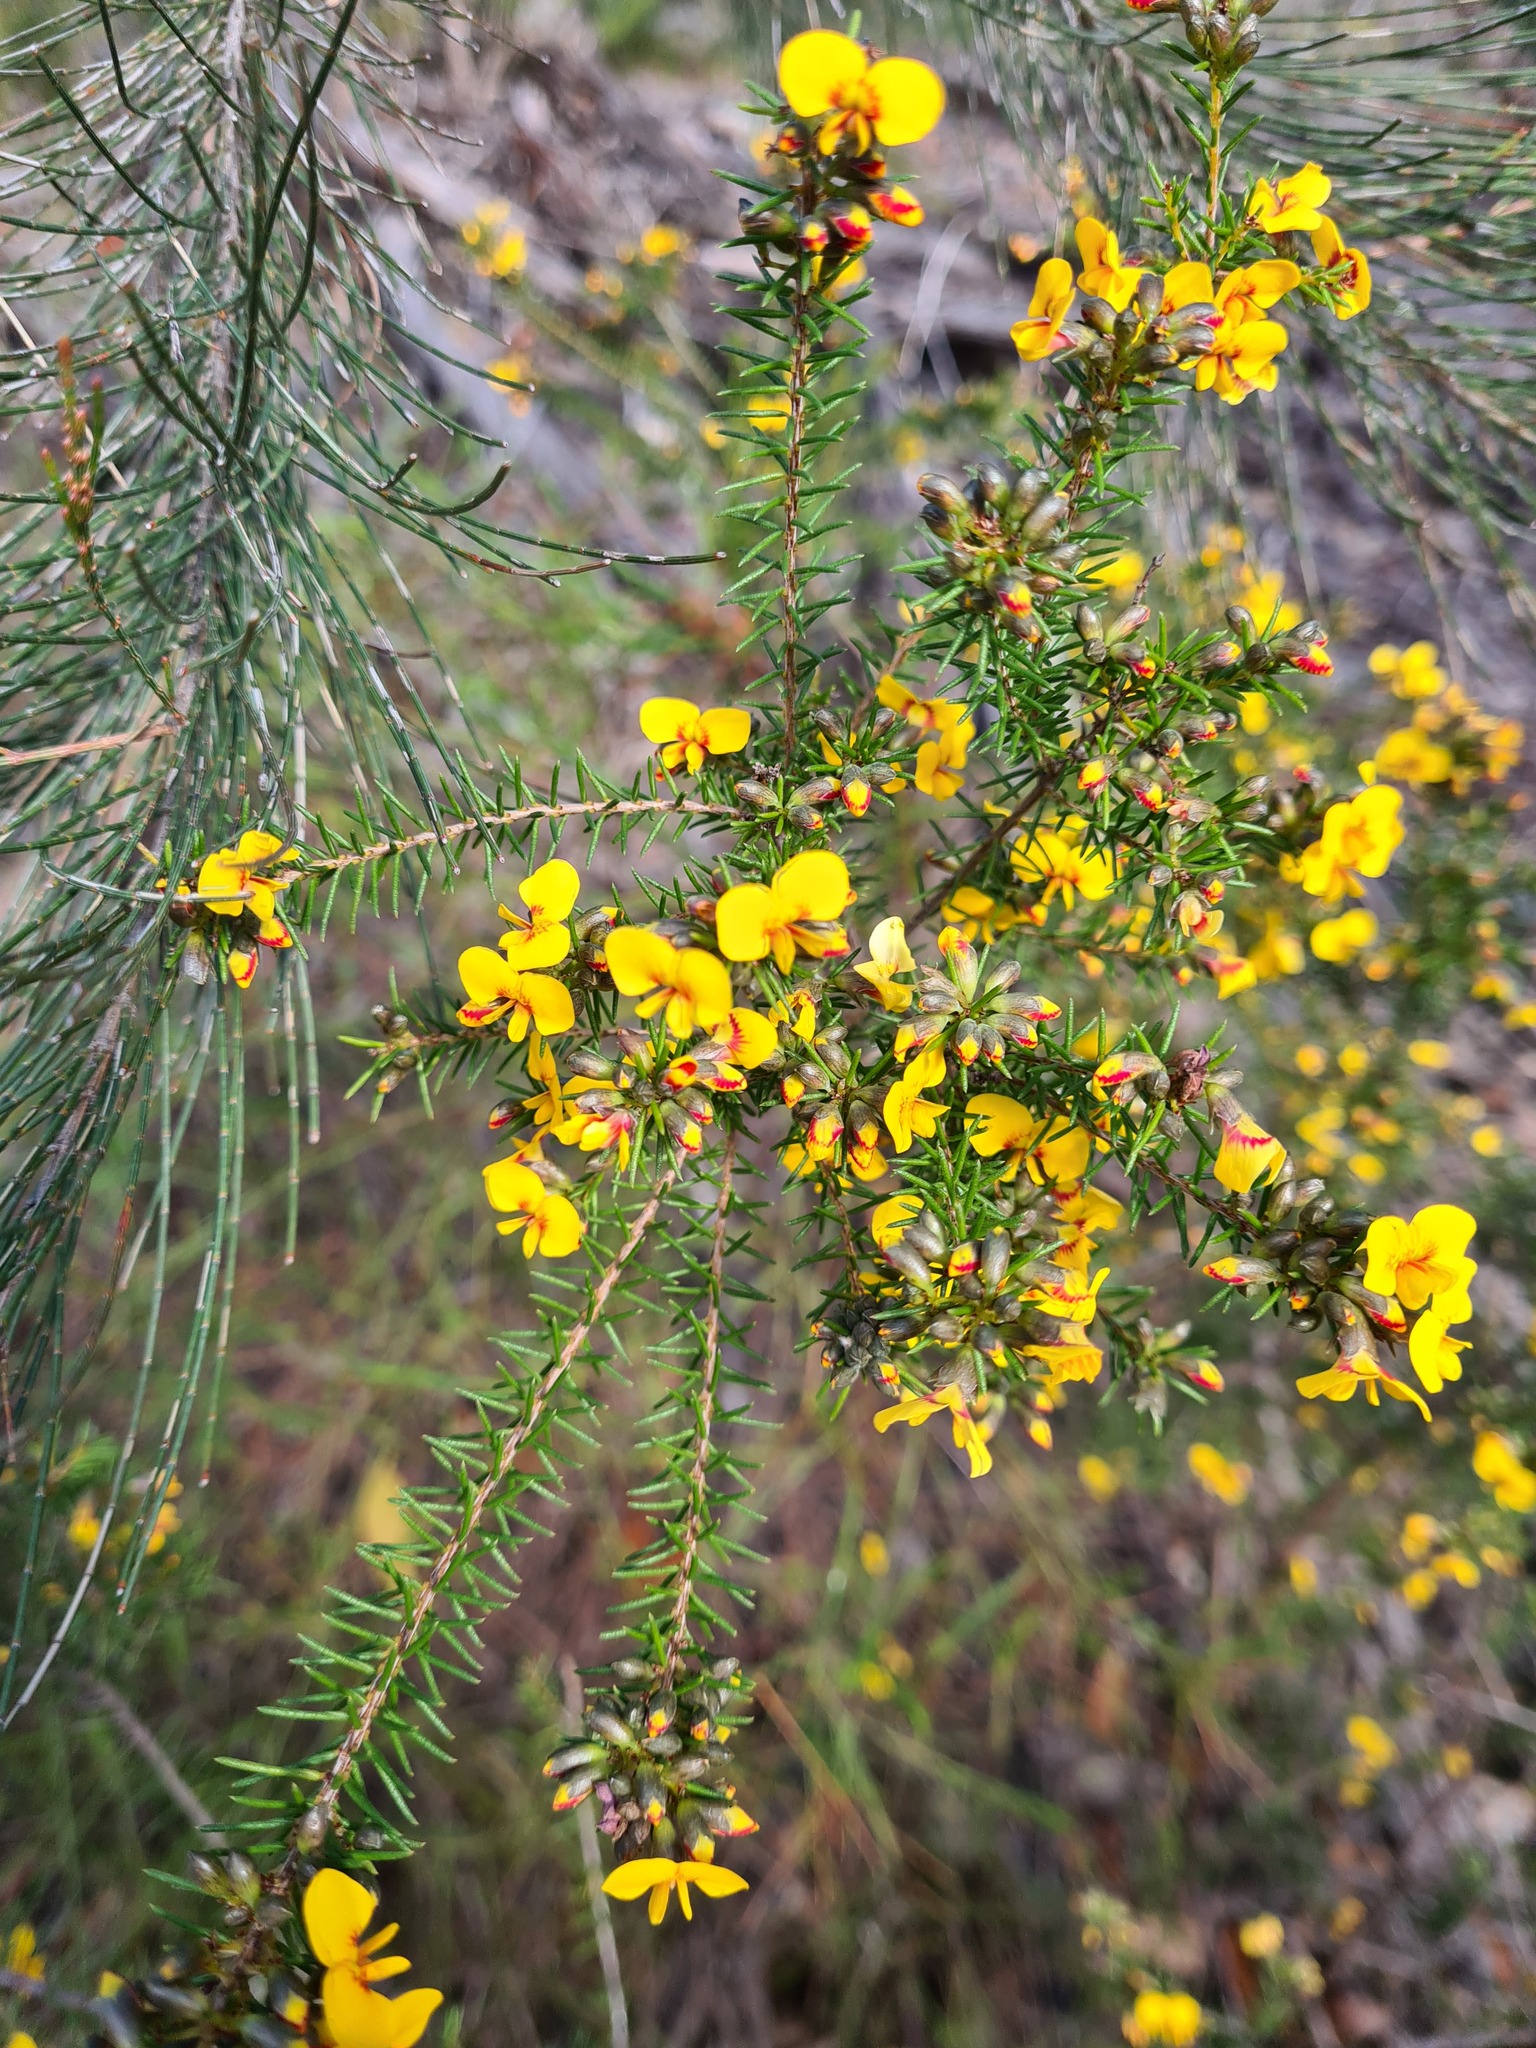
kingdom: Plantae
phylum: Tracheophyta
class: Magnoliopsida
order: Fabales
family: Fabaceae
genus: Dillwynia
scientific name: Dillwynia retorta
